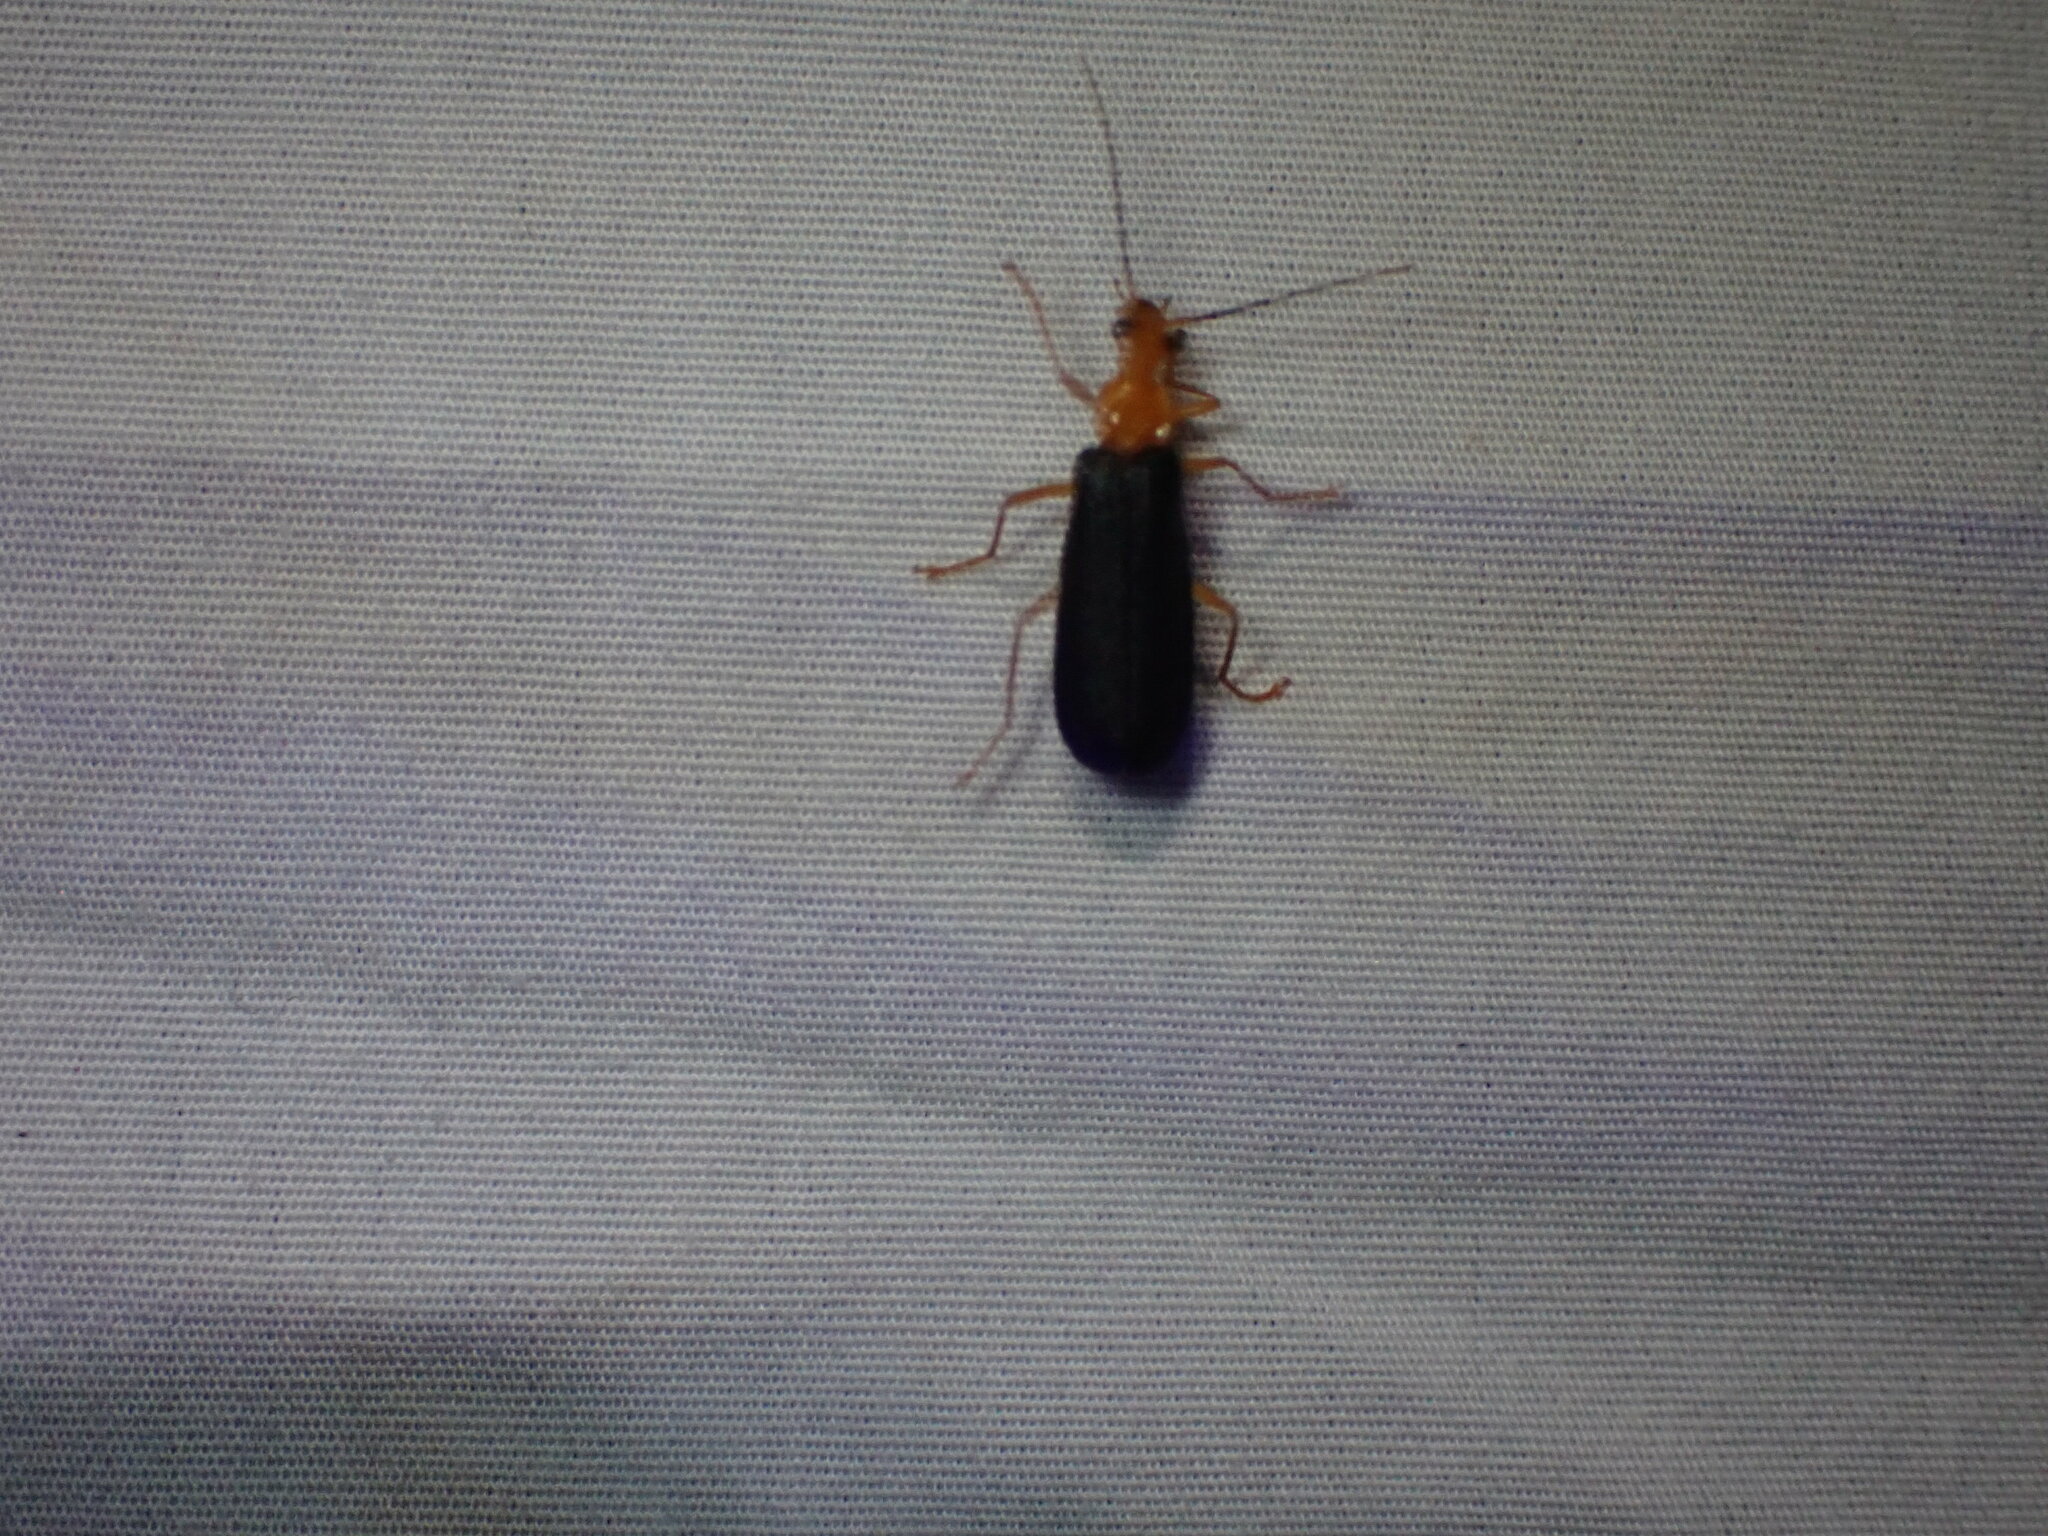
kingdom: Animalia
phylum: Arthropoda
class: Insecta
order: Coleoptera
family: Cantharidae
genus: Podabrus
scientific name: Podabrus fayi
